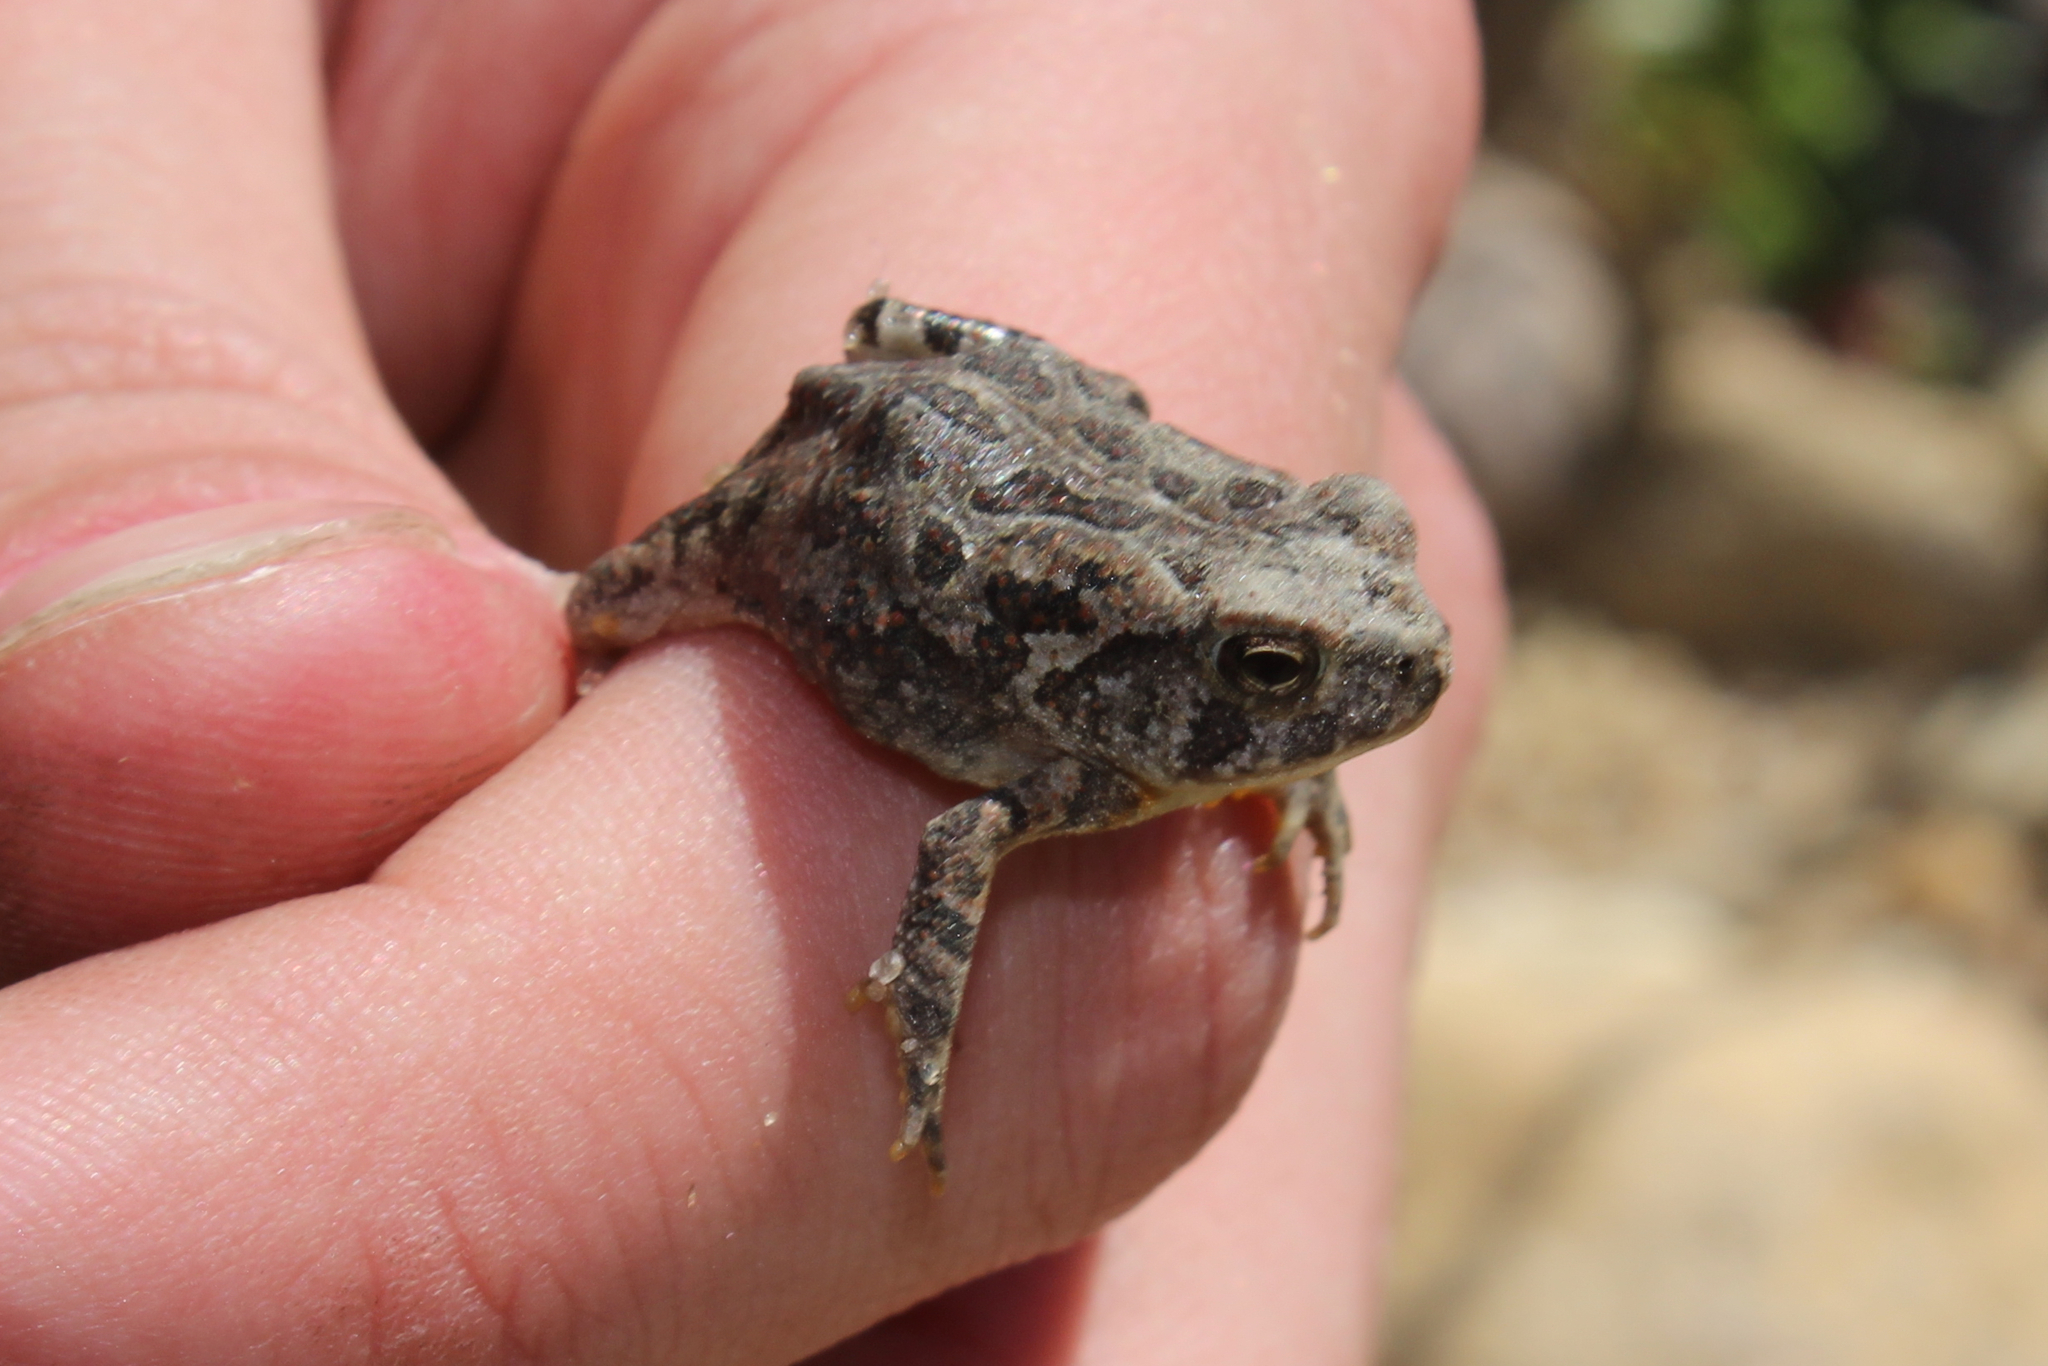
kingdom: Animalia
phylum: Chordata
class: Amphibia
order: Anura
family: Bufonidae
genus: Anaxyrus
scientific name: Anaxyrus fowleri
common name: Fowler's toad
